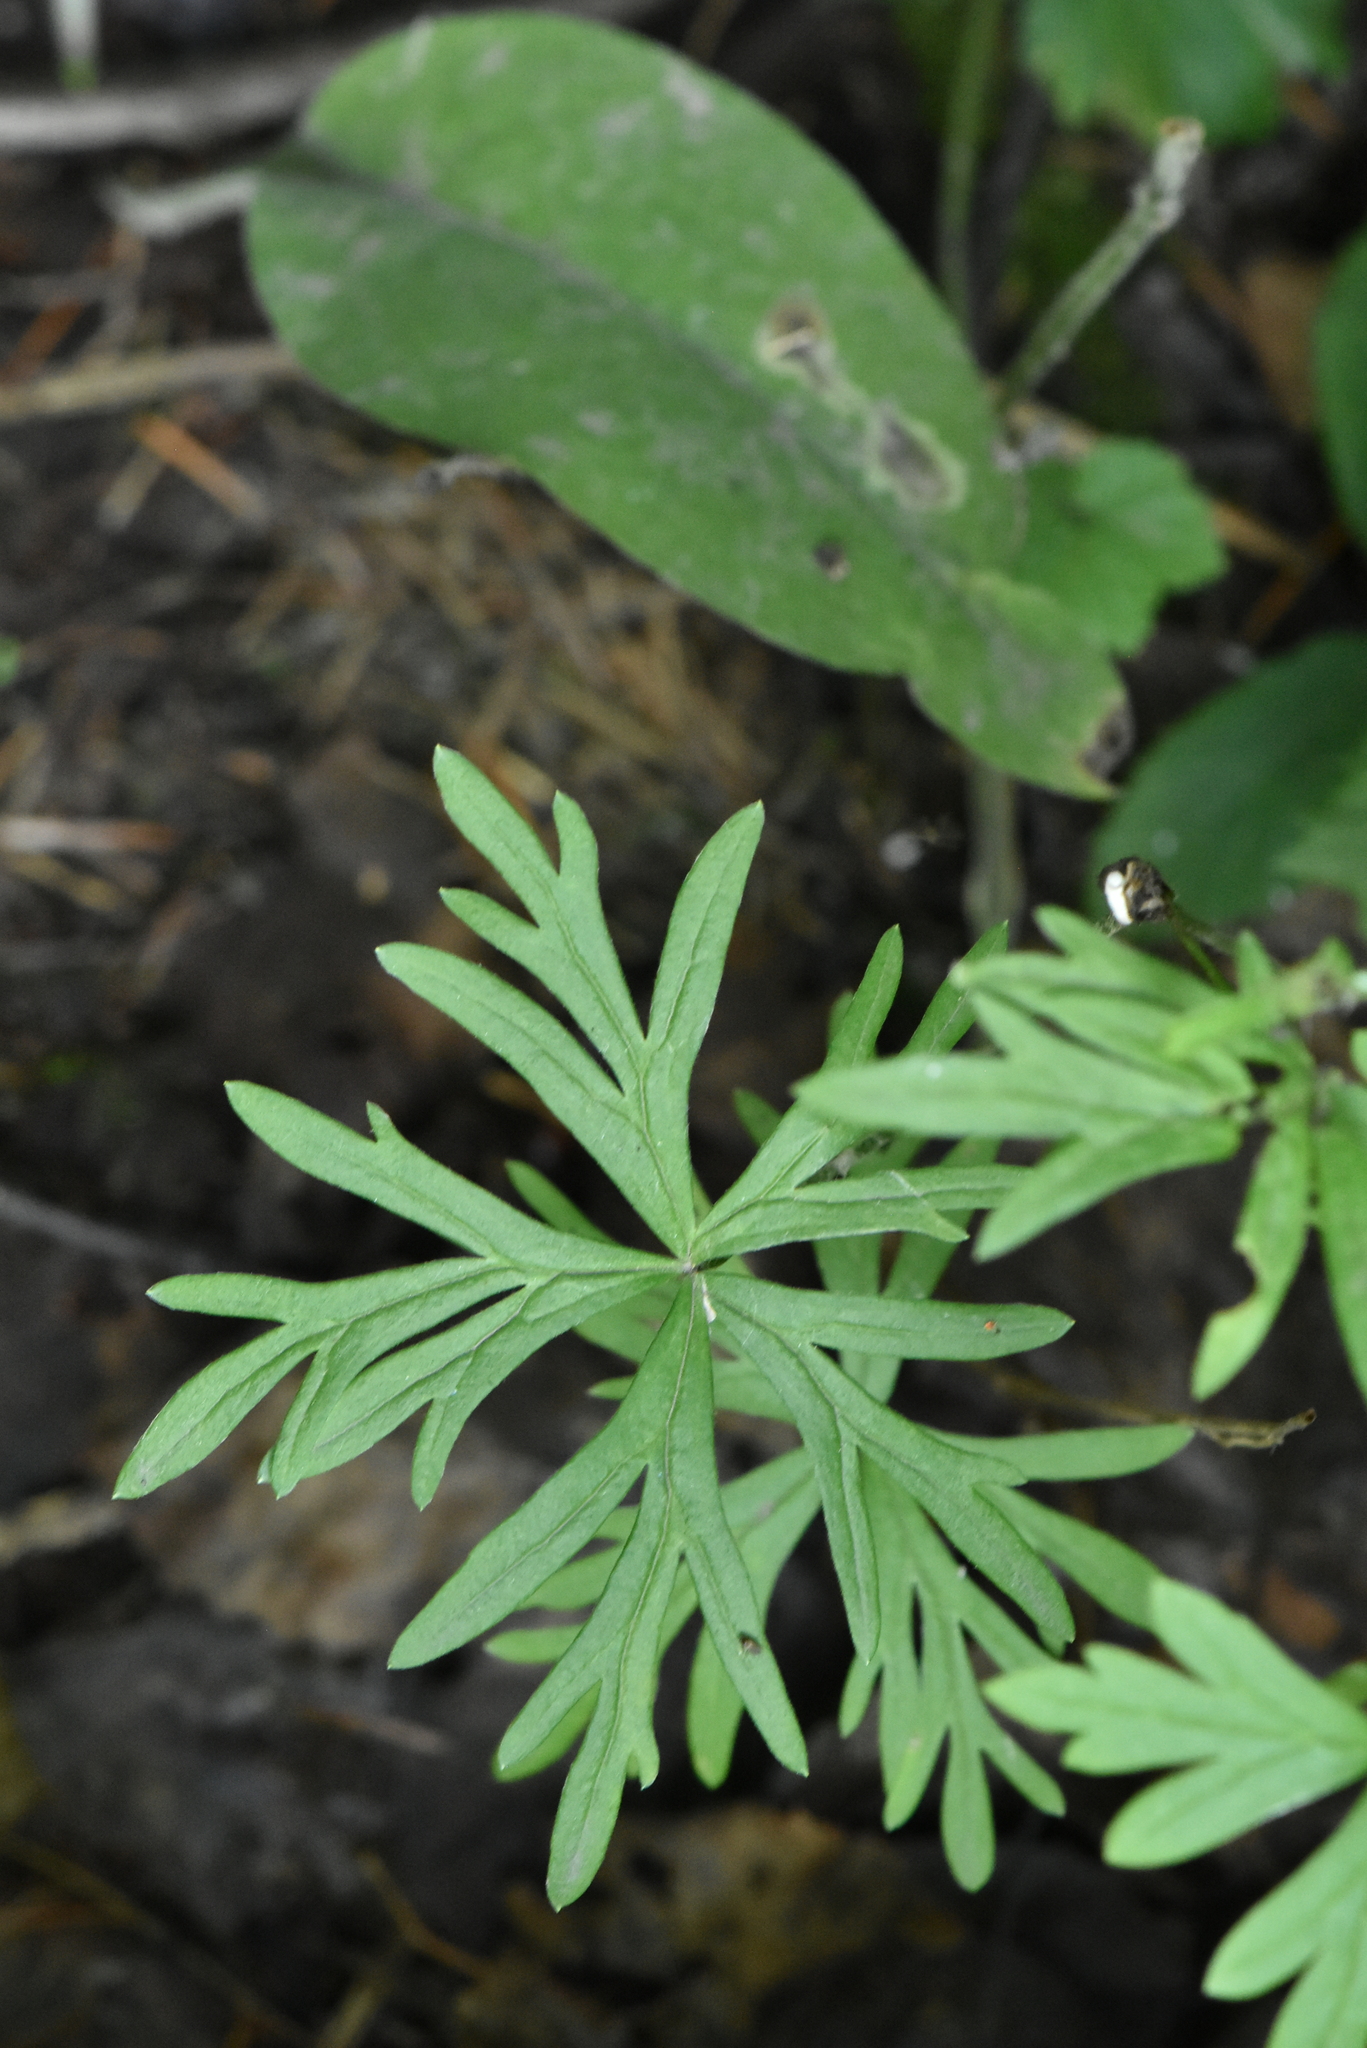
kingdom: Plantae
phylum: Tracheophyta
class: Magnoliopsida
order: Ranunculales
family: Ranunculaceae
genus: Trollius
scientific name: Trollius asiaticus
